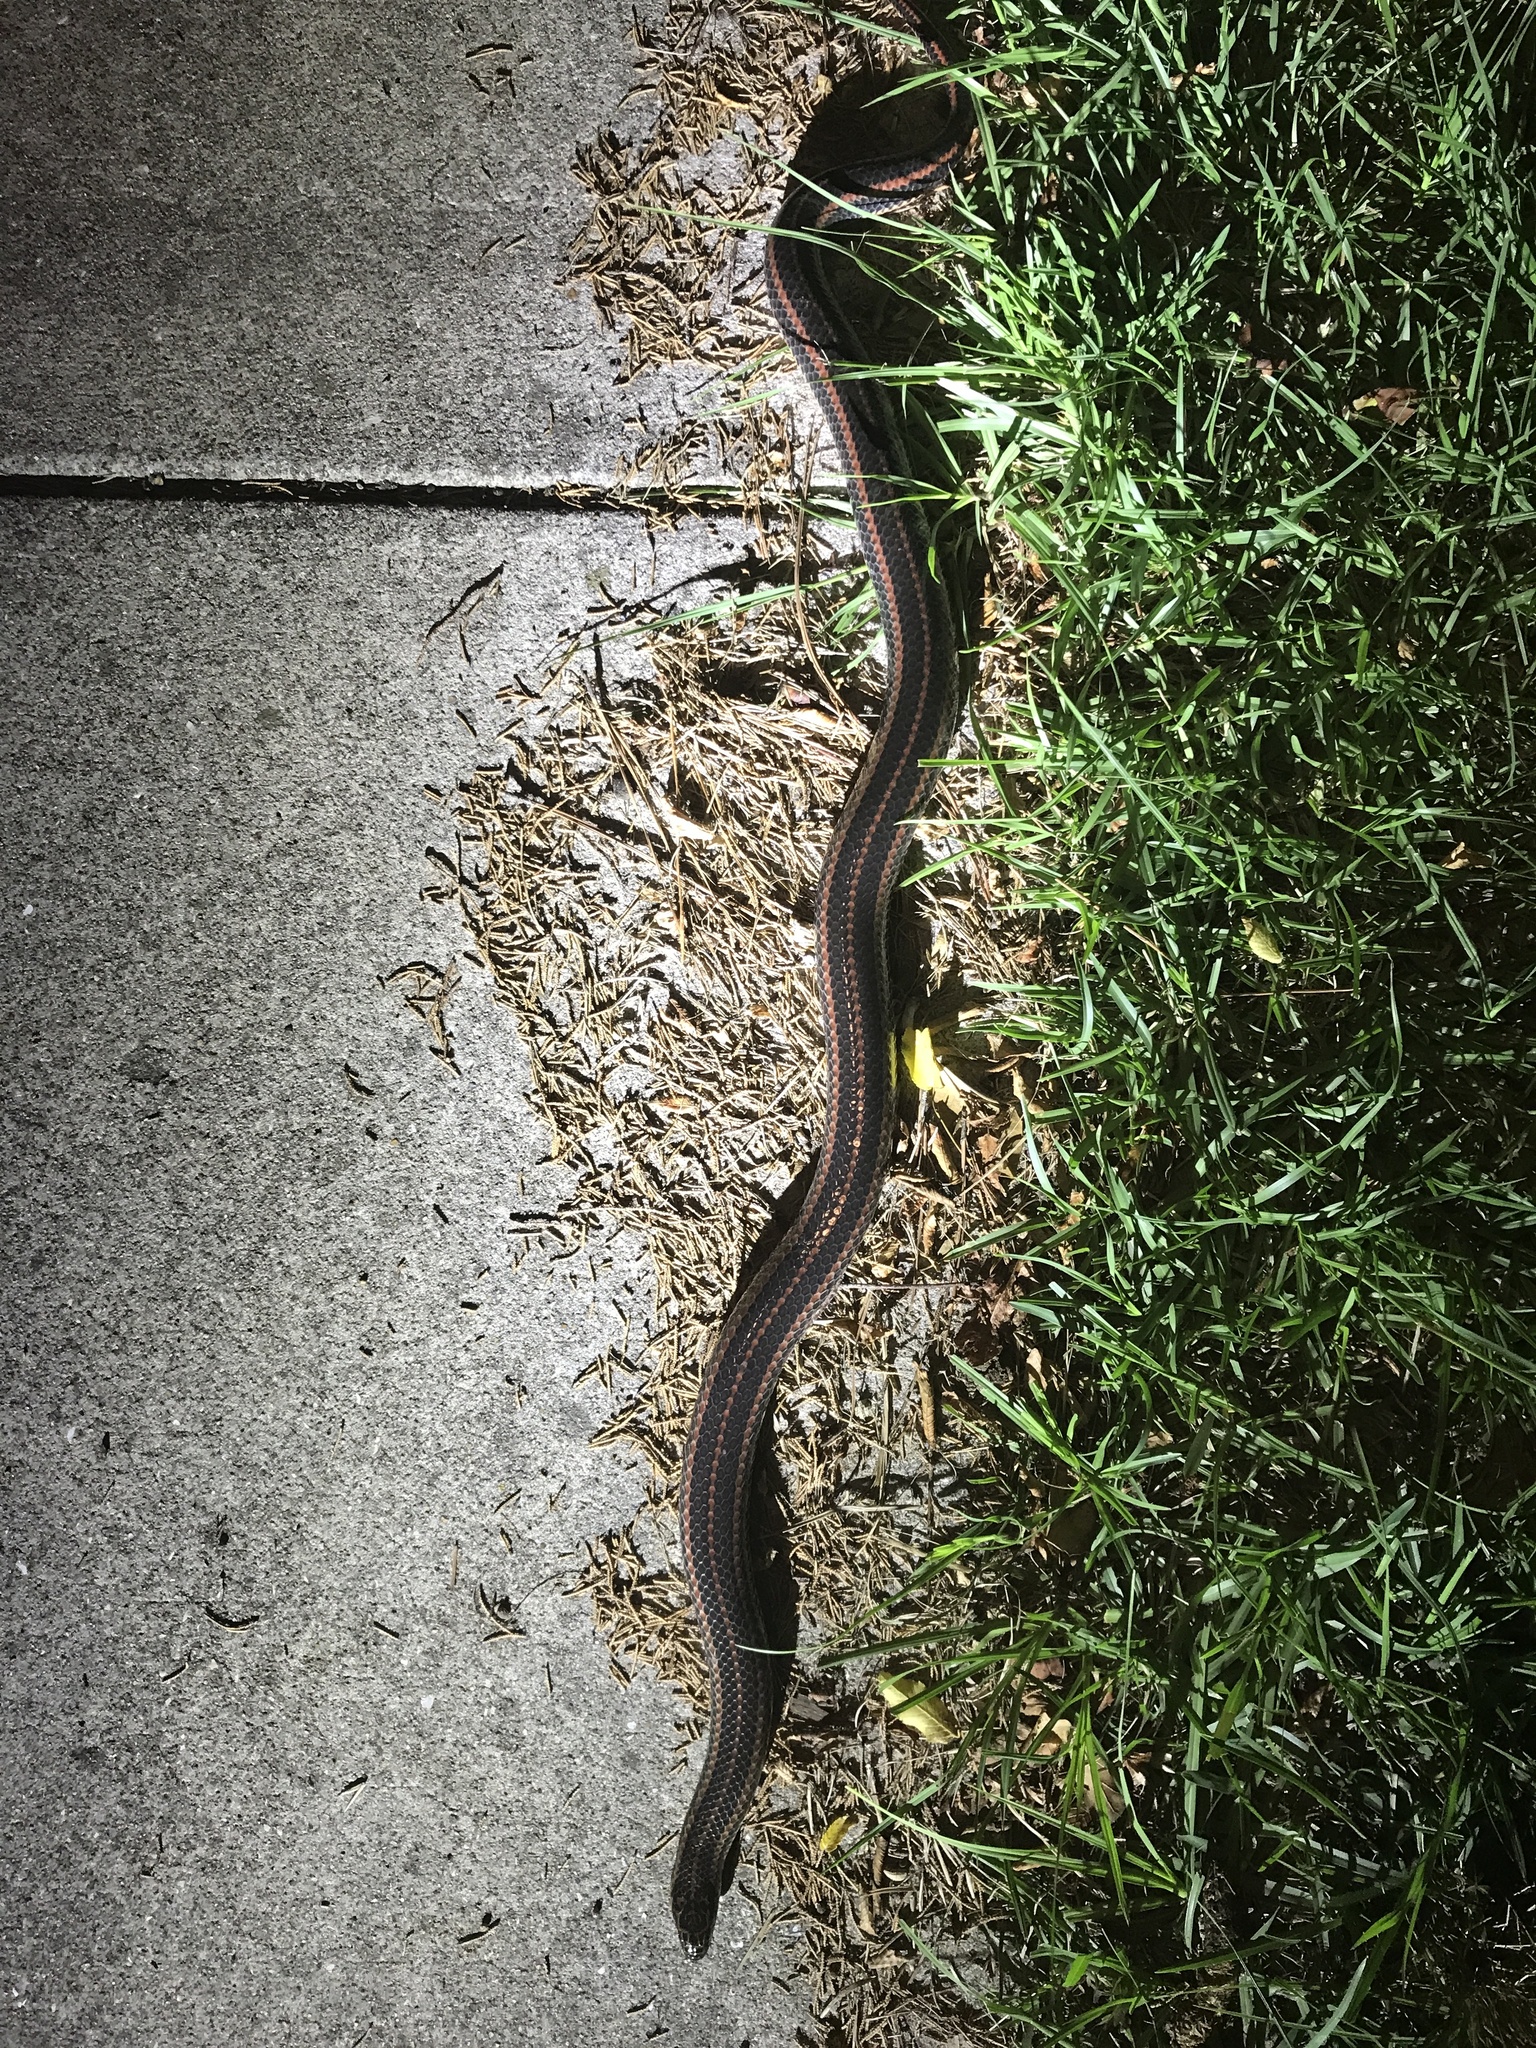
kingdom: Animalia
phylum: Chordata
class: Squamata
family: Colubridae
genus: Farancia
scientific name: Farancia erytrogramma
